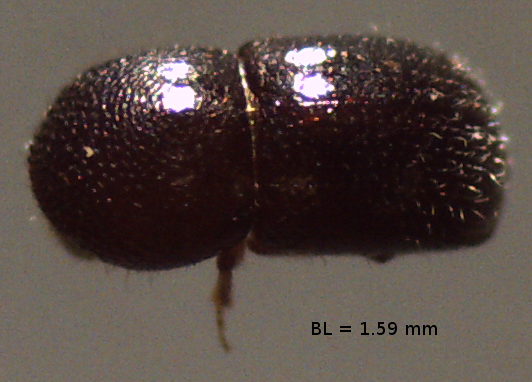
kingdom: Animalia
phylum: Arthropoda
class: Insecta
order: Coleoptera
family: Curculionidae
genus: Xylosandrus
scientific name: Xylosandrus compactus
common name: Black twig borer
